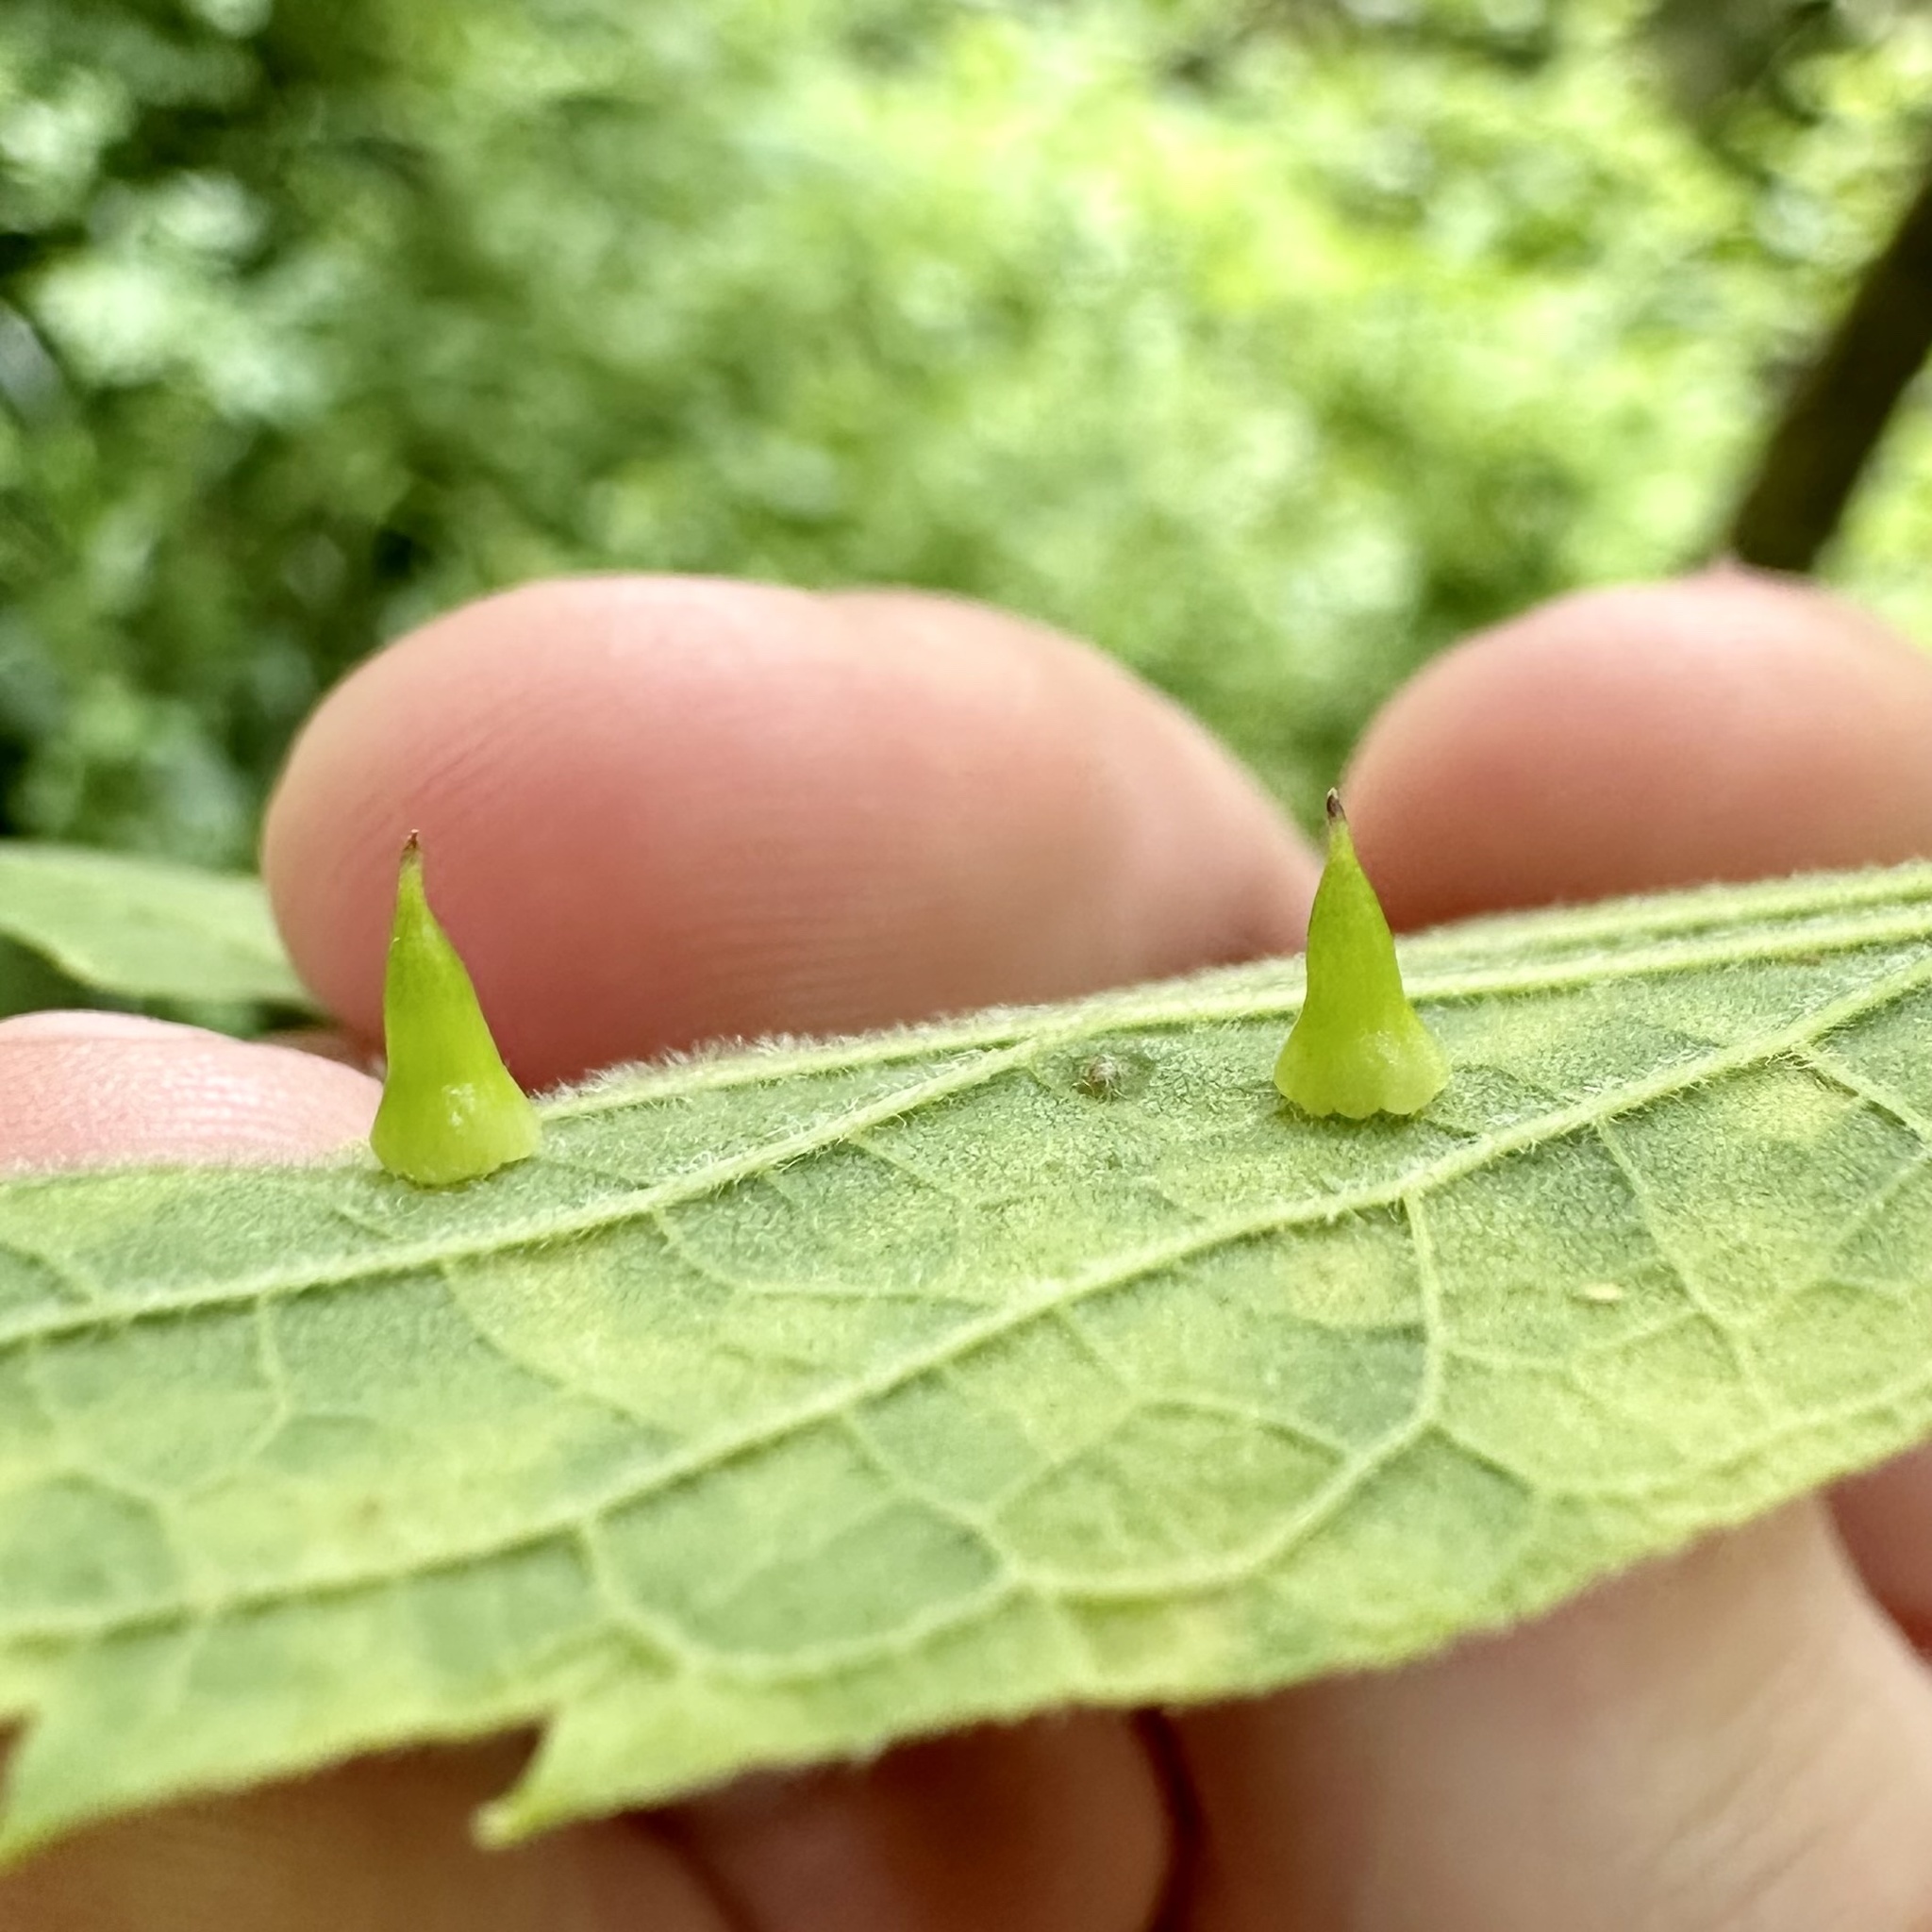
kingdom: Animalia
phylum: Arthropoda
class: Insecta
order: Diptera
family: Cecidomyiidae
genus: Celticecis
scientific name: Celticecis spiniformis
